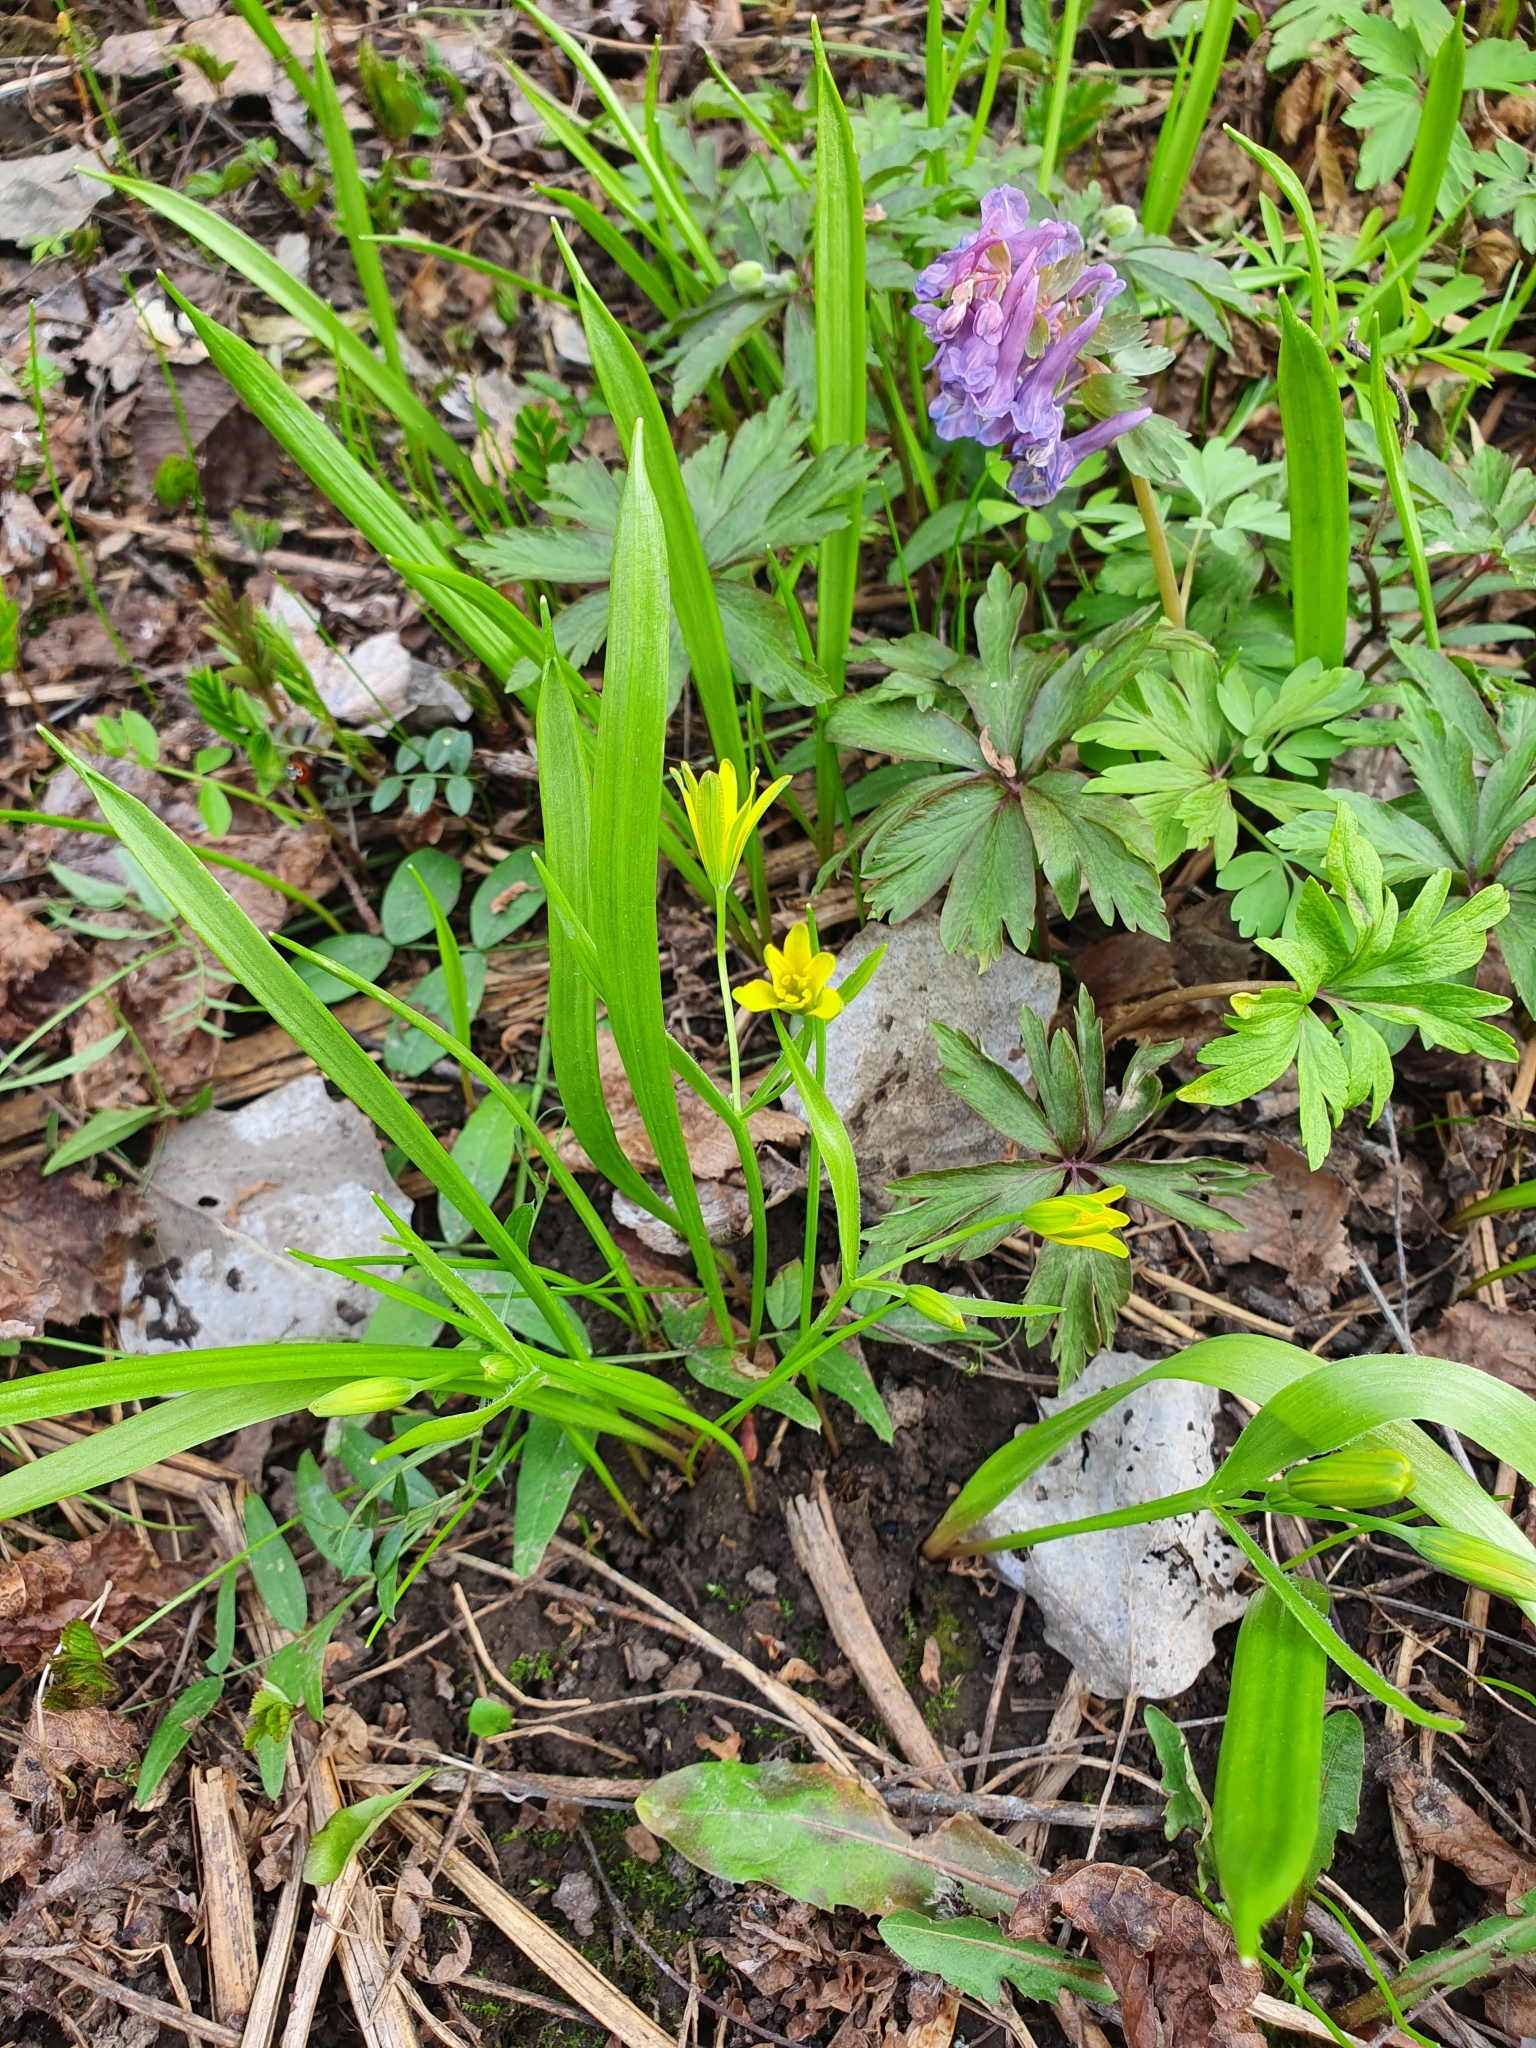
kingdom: Plantae
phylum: Tracheophyta
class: Liliopsida
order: Liliales
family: Liliaceae
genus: Gagea
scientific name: Gagea lutea
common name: Yellow star-of-bethlehem
